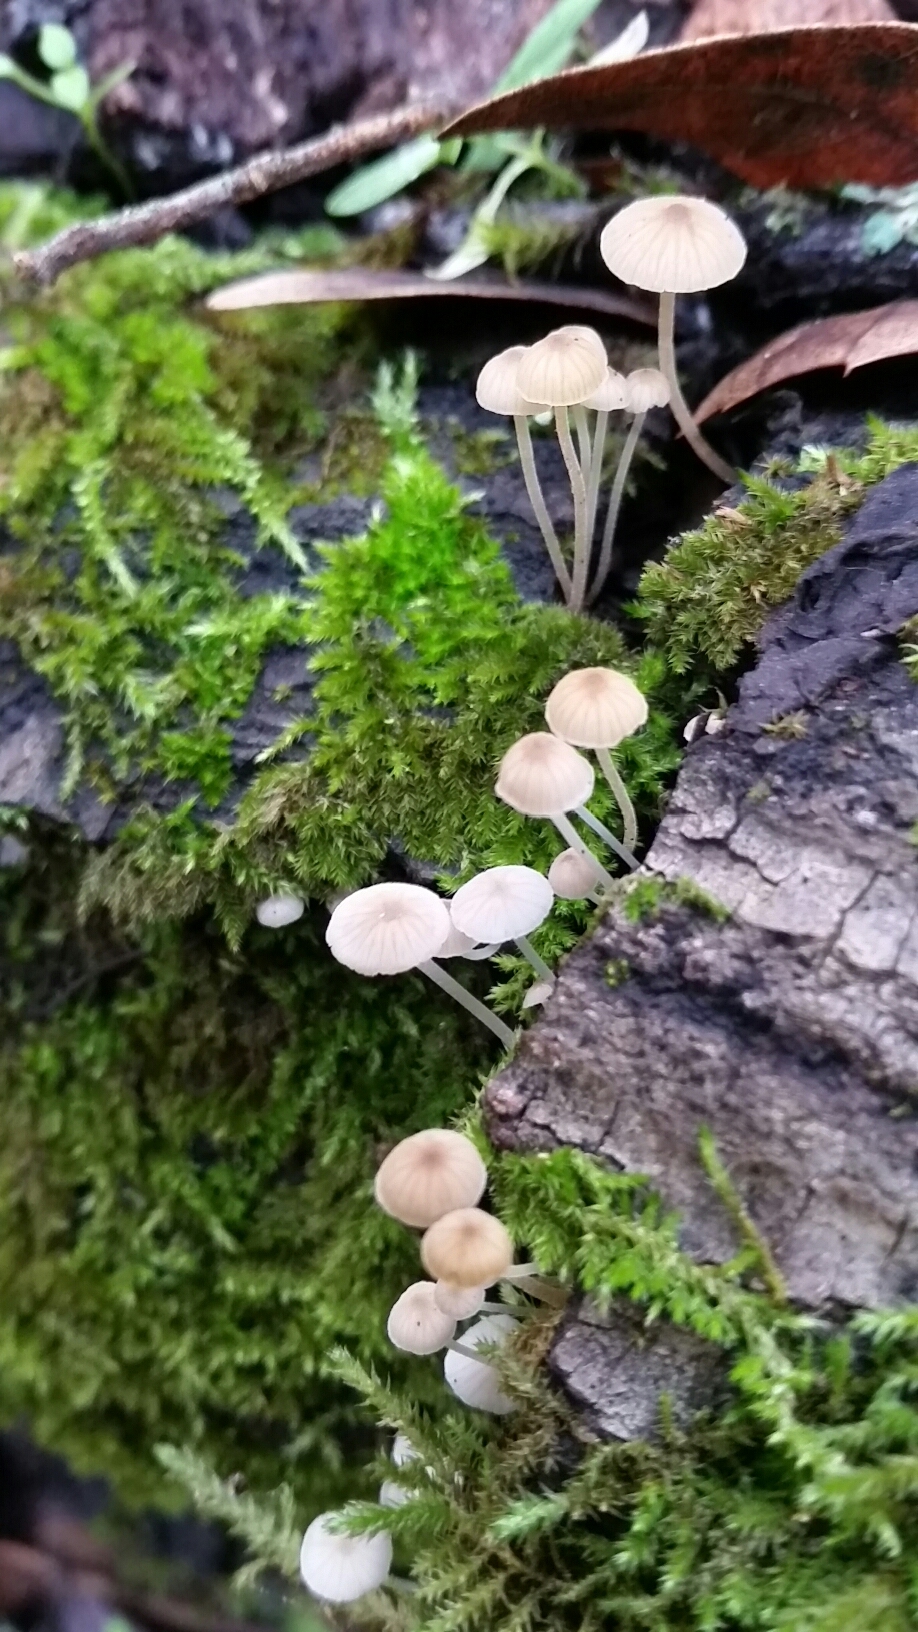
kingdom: Fungi
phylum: Basidiomycota
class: Agaricomycetes
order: Agaricales
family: Porotheleaceae
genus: Phloeomana
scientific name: Phloeomana speirea
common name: Bark bonnet
